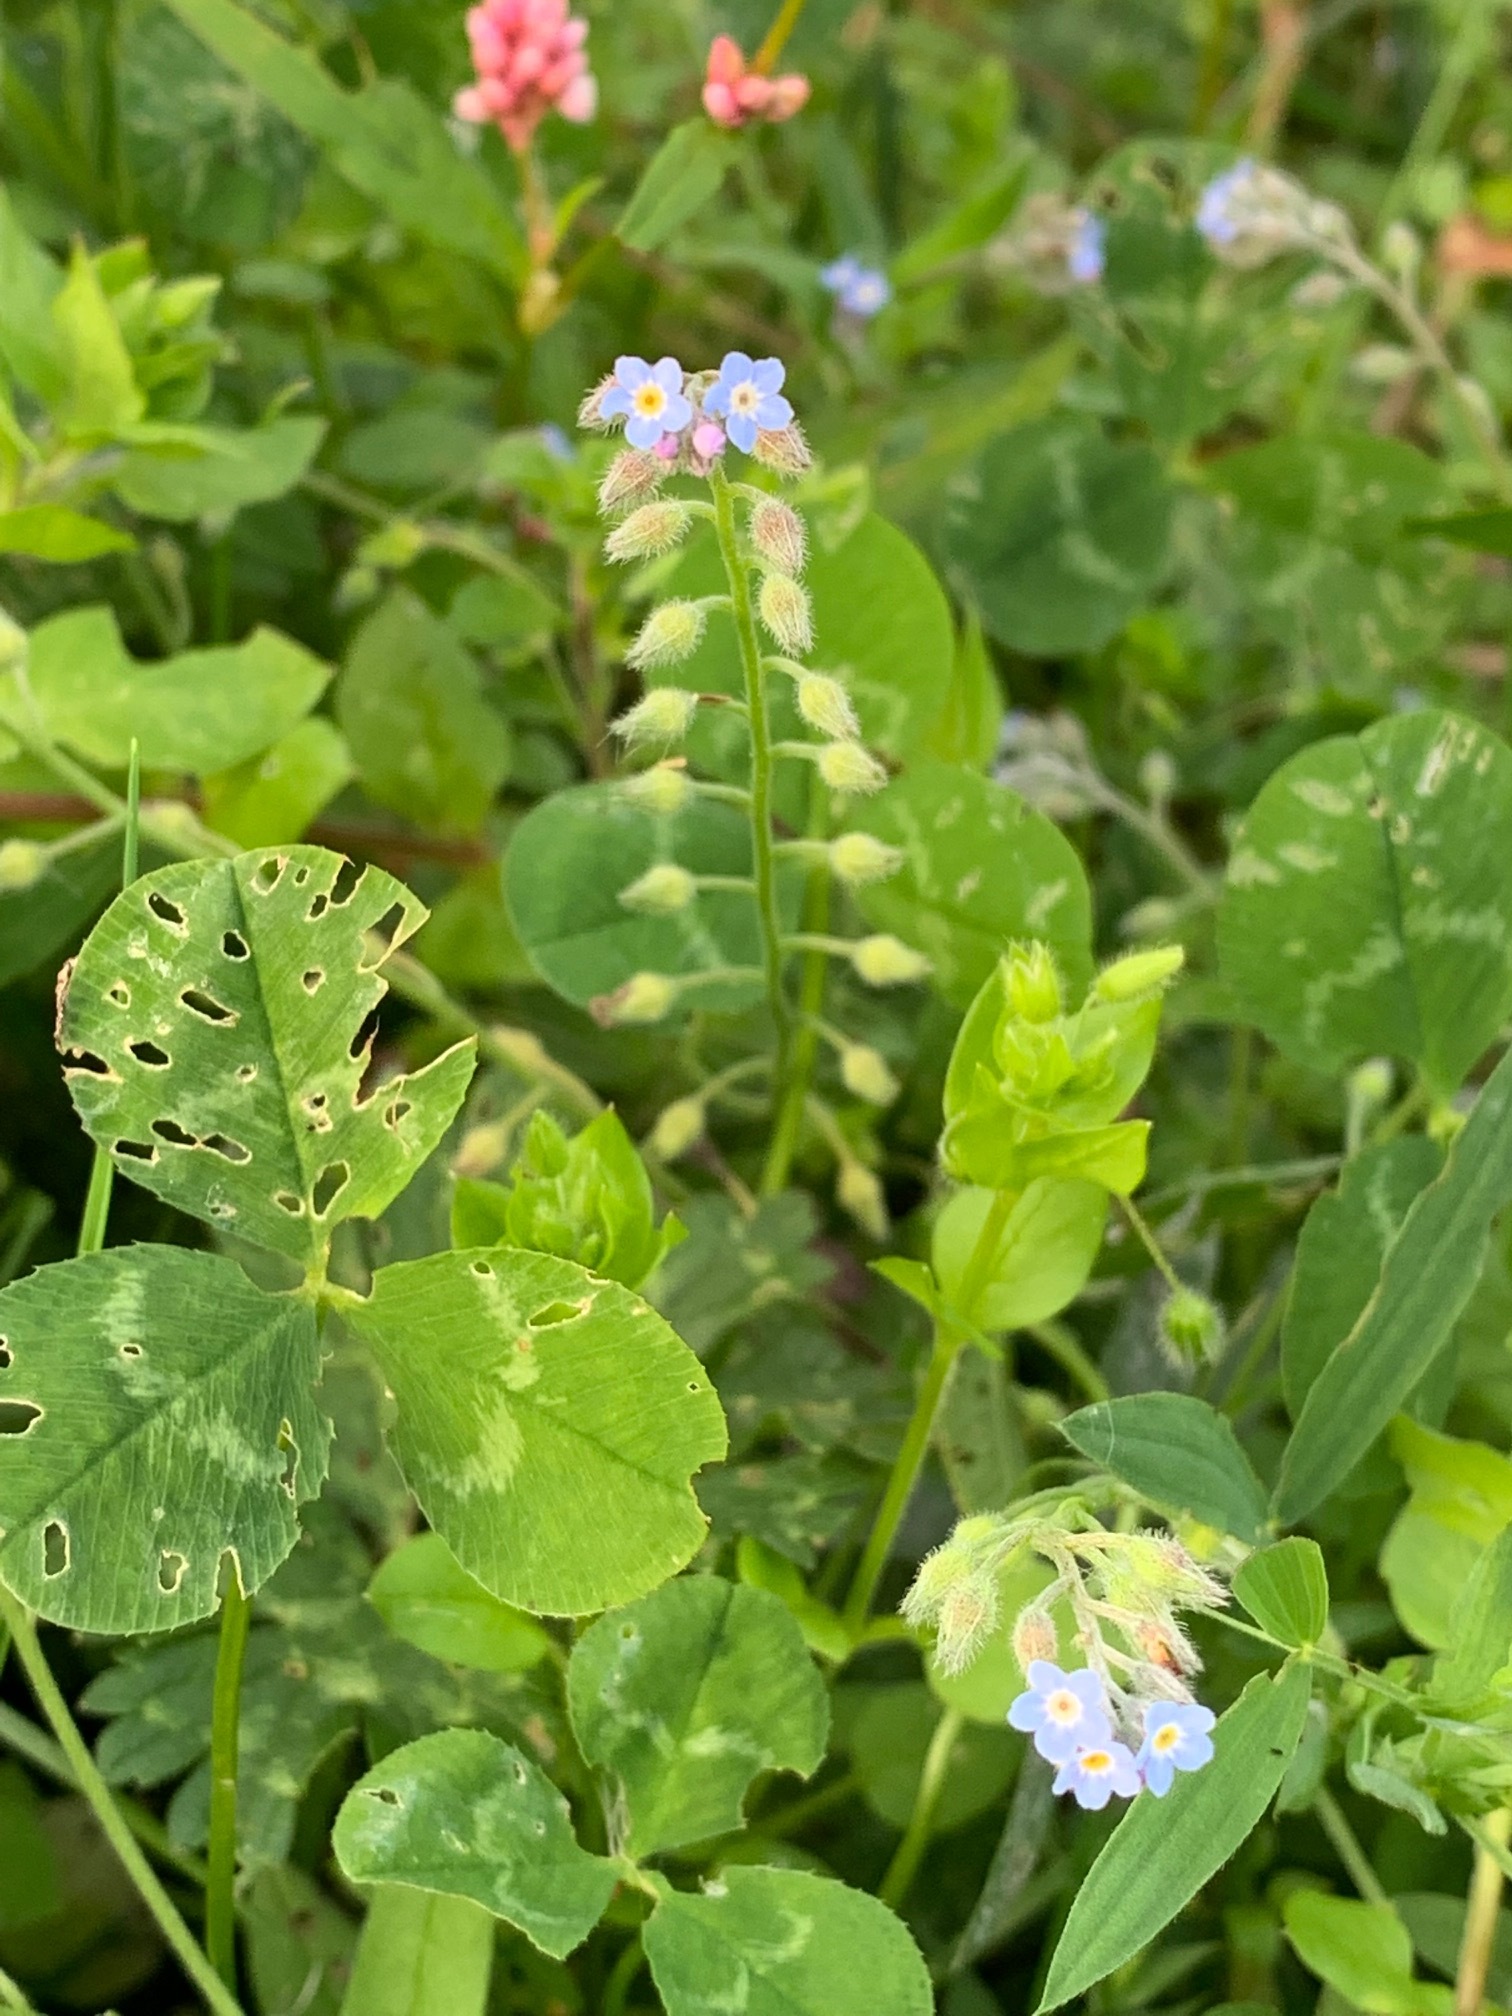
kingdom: Plantae
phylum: Tracheophyta
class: Magnoliopsida
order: Boraginales
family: Boraginaceae
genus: Myosotis
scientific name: Myosotis arvensis
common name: Field forget-me-not
